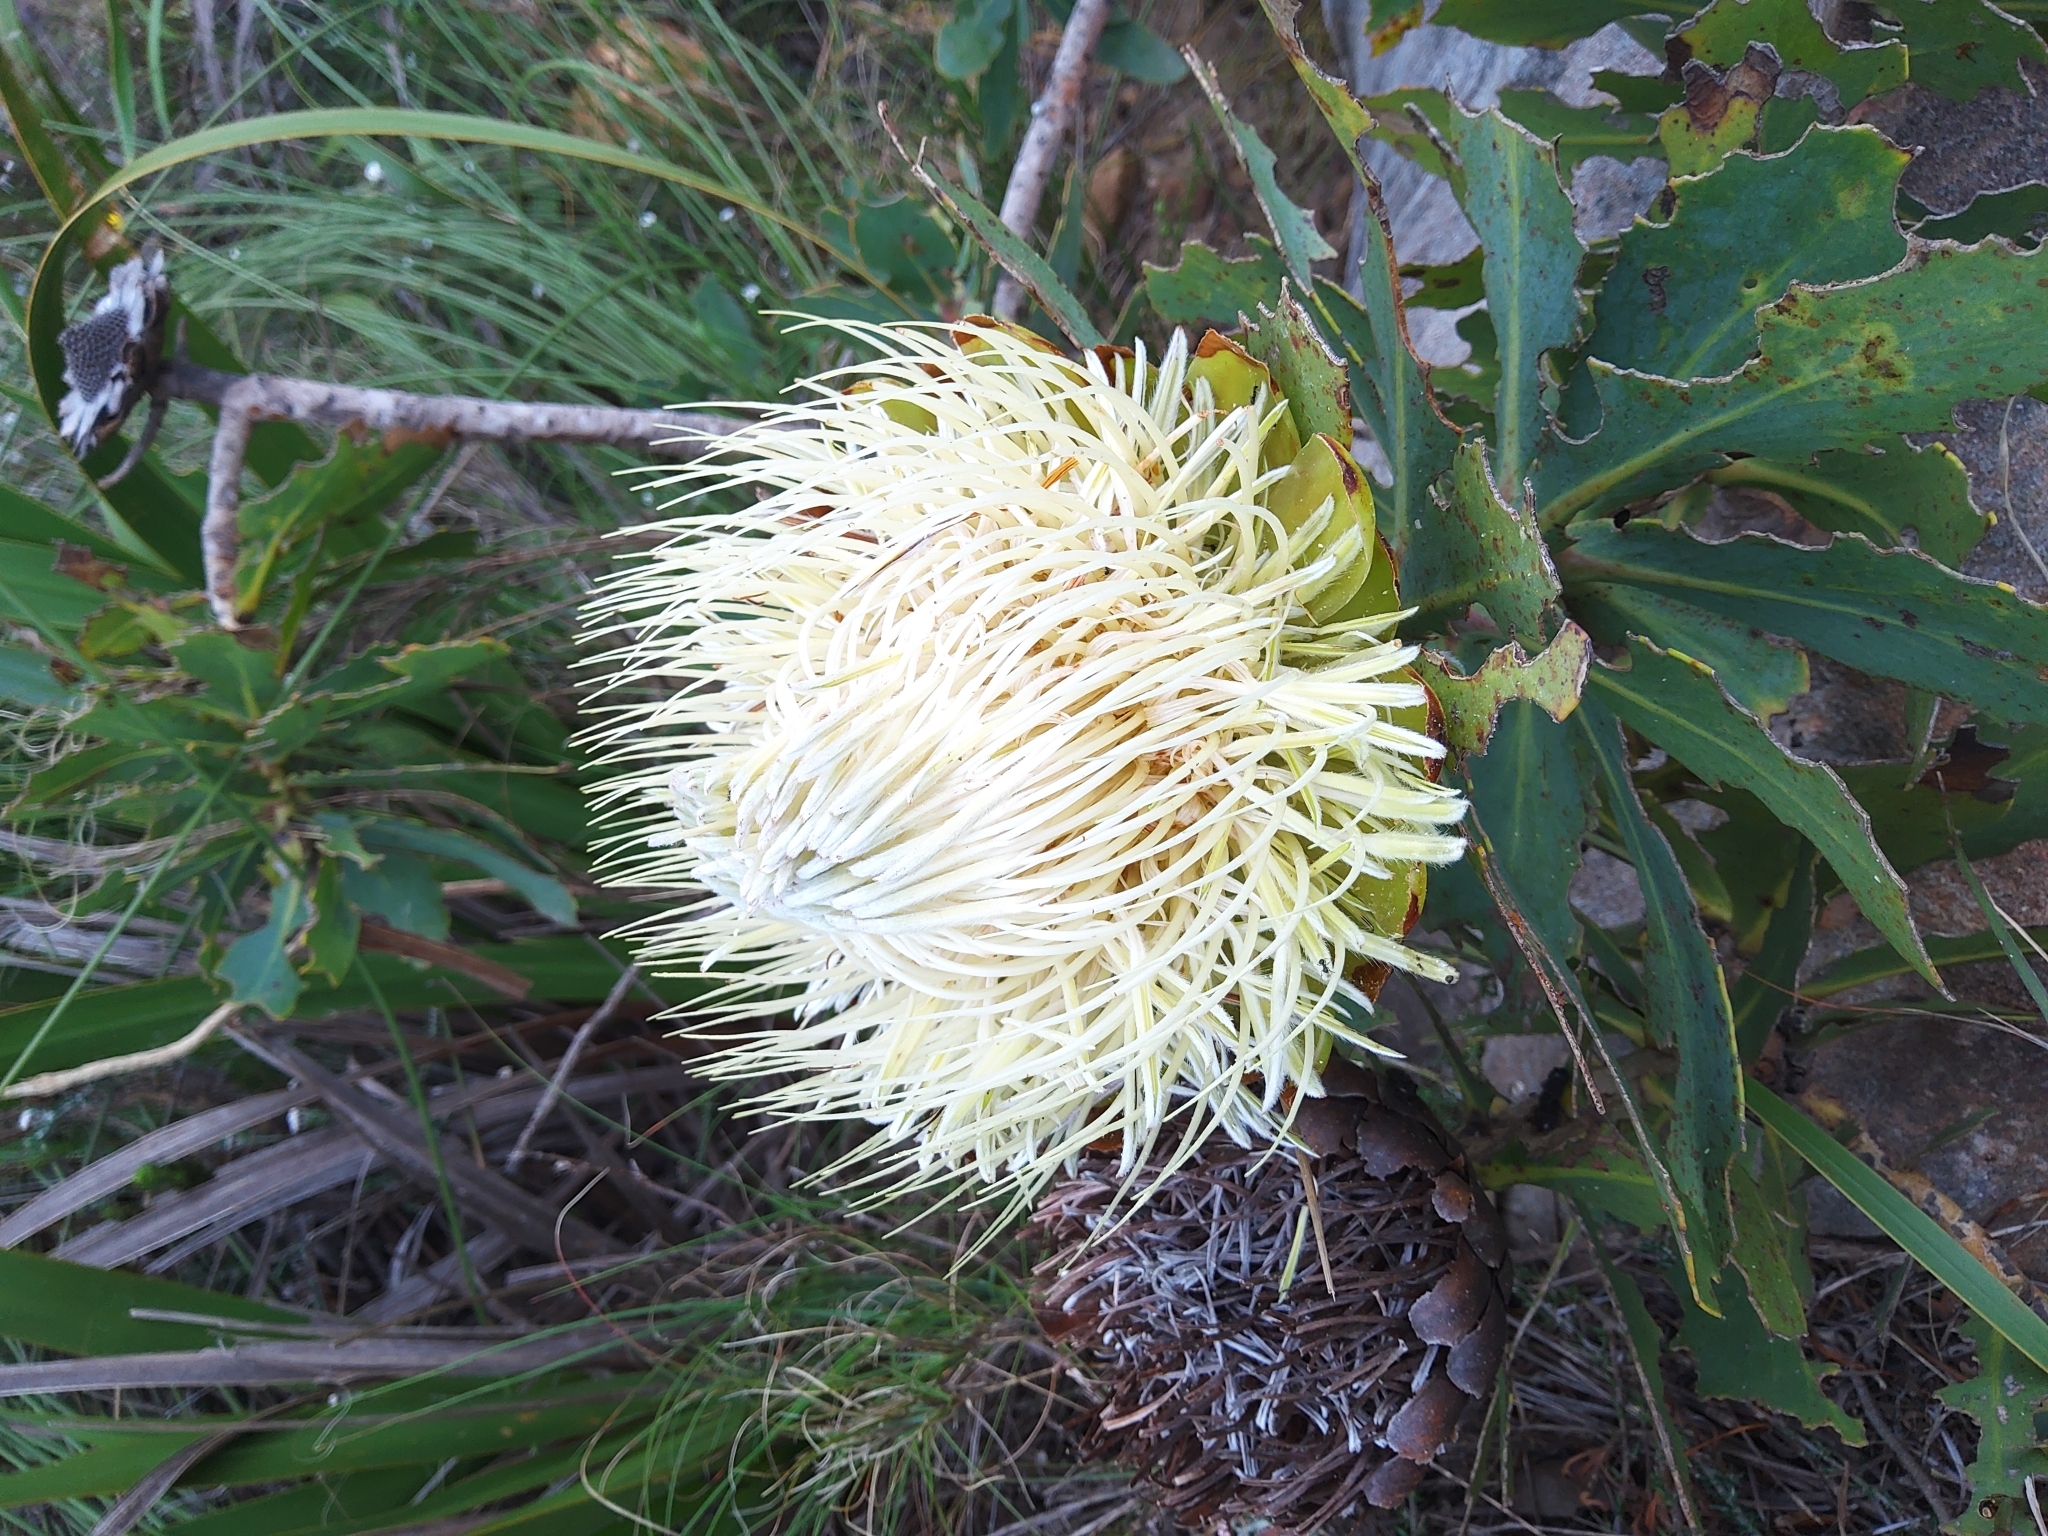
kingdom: Plantae
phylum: Tracheophyta
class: Magnoliopsida
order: Proteales
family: Proteaceae
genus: Protea
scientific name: Protea nitida
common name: Tree protea
